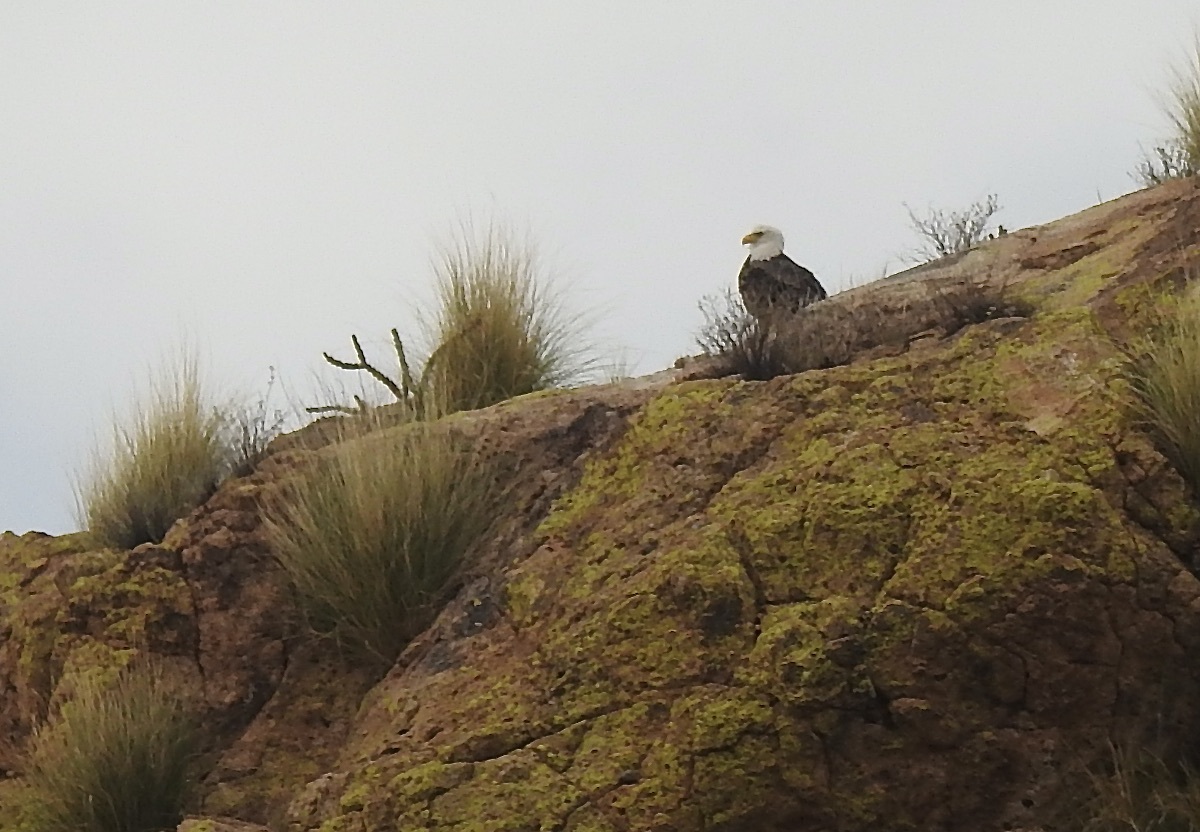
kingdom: Animalia
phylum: Chordata
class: Aves
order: Accipitriformes
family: Accipitridae
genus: Haliaeetus
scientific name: Haliaeetus leucocephalus
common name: Bald eagle
